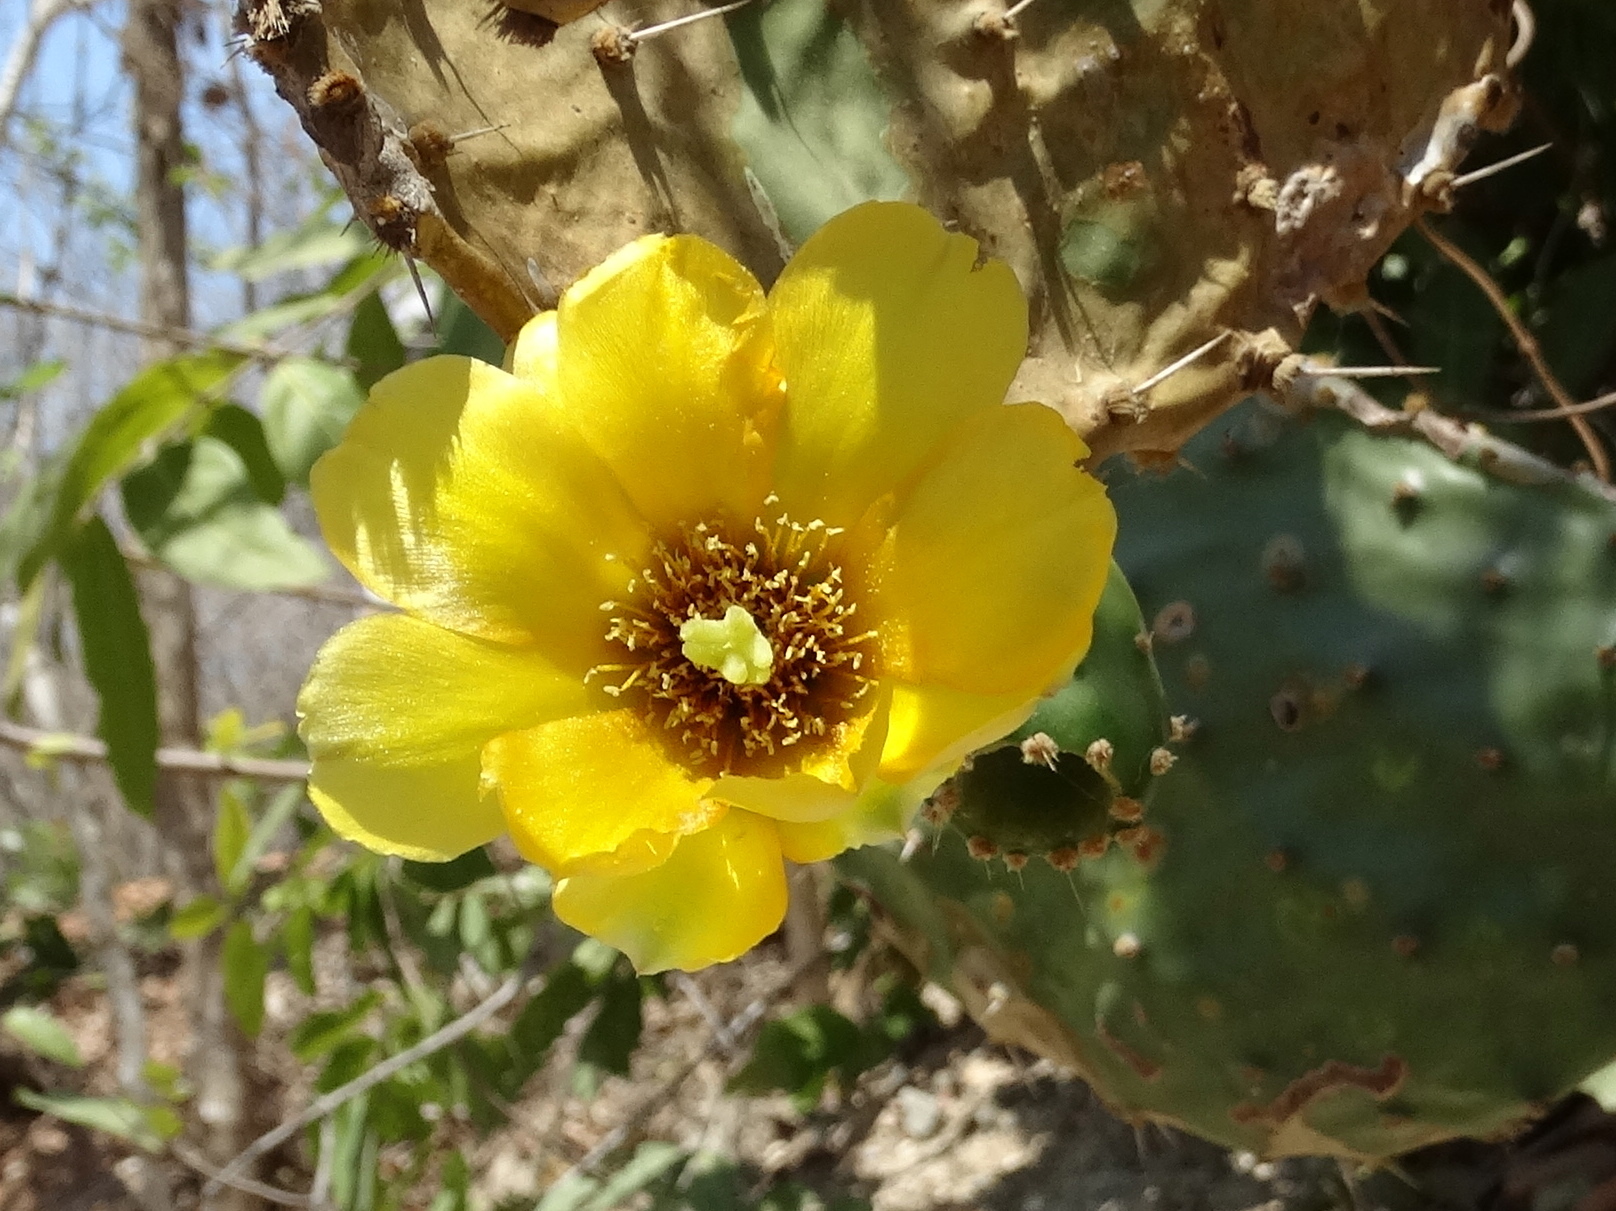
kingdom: Plantae
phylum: Tracheophyta
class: Magnoliopsida
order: Caryophyllales
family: Cactaceae
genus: Opuntia
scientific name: Opuntia decumbens
